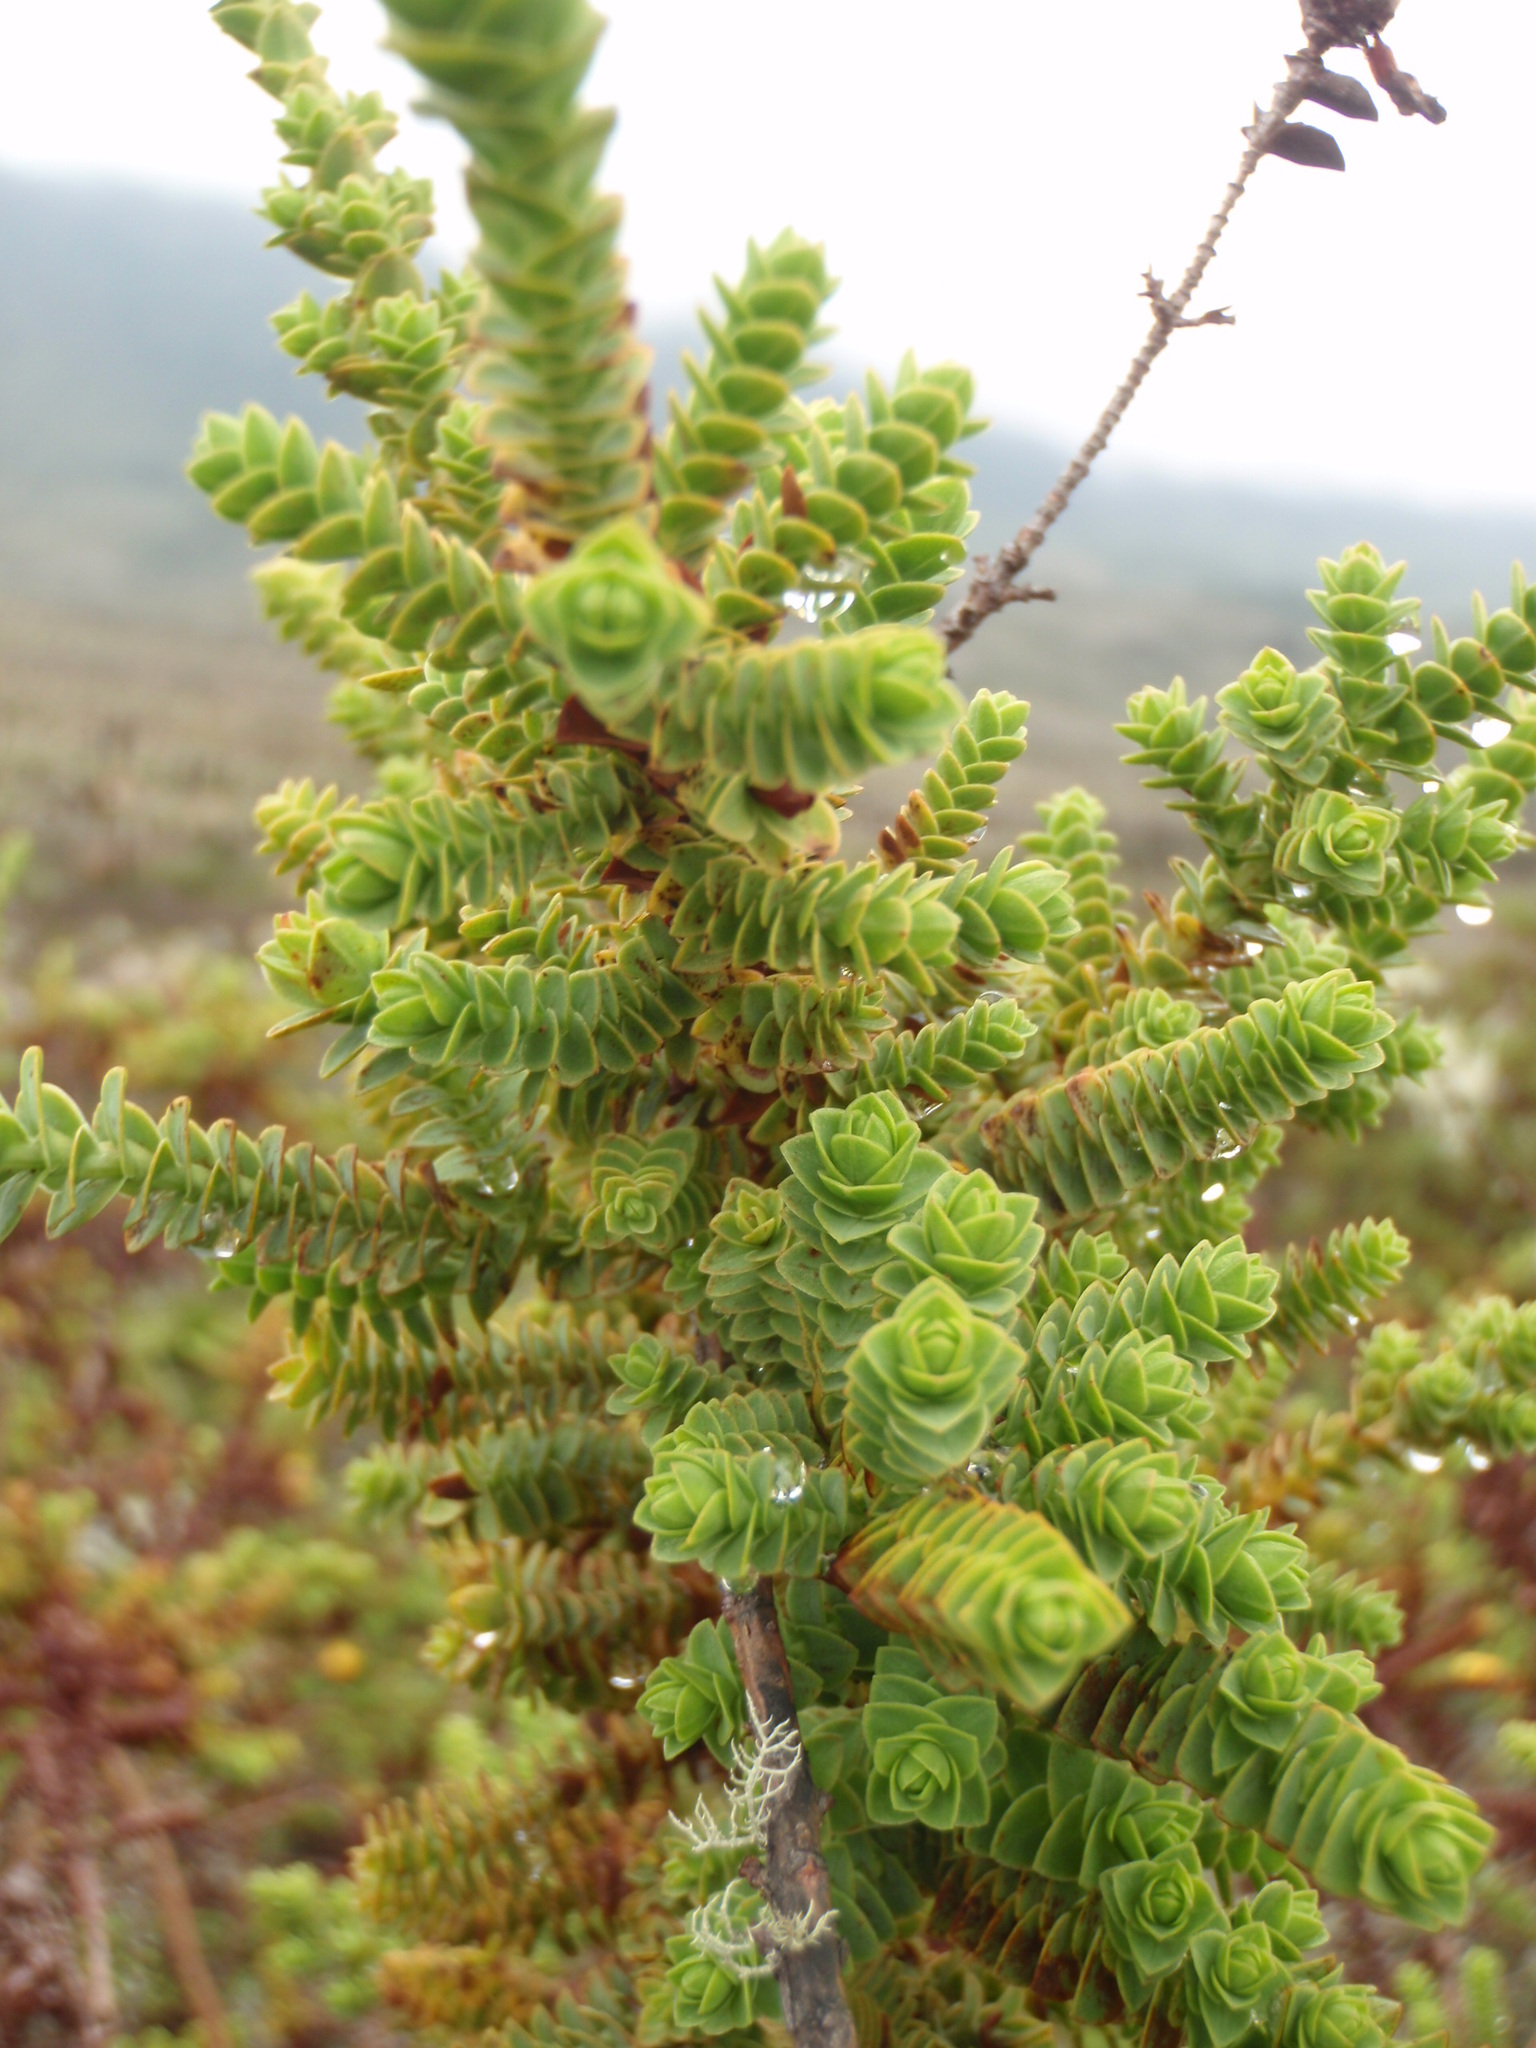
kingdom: Plantae
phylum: Tracheophyta
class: Magnoliopsida
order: Malpighiales
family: Hypericaceae
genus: Hypericum
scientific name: Hypericum goyanesii
